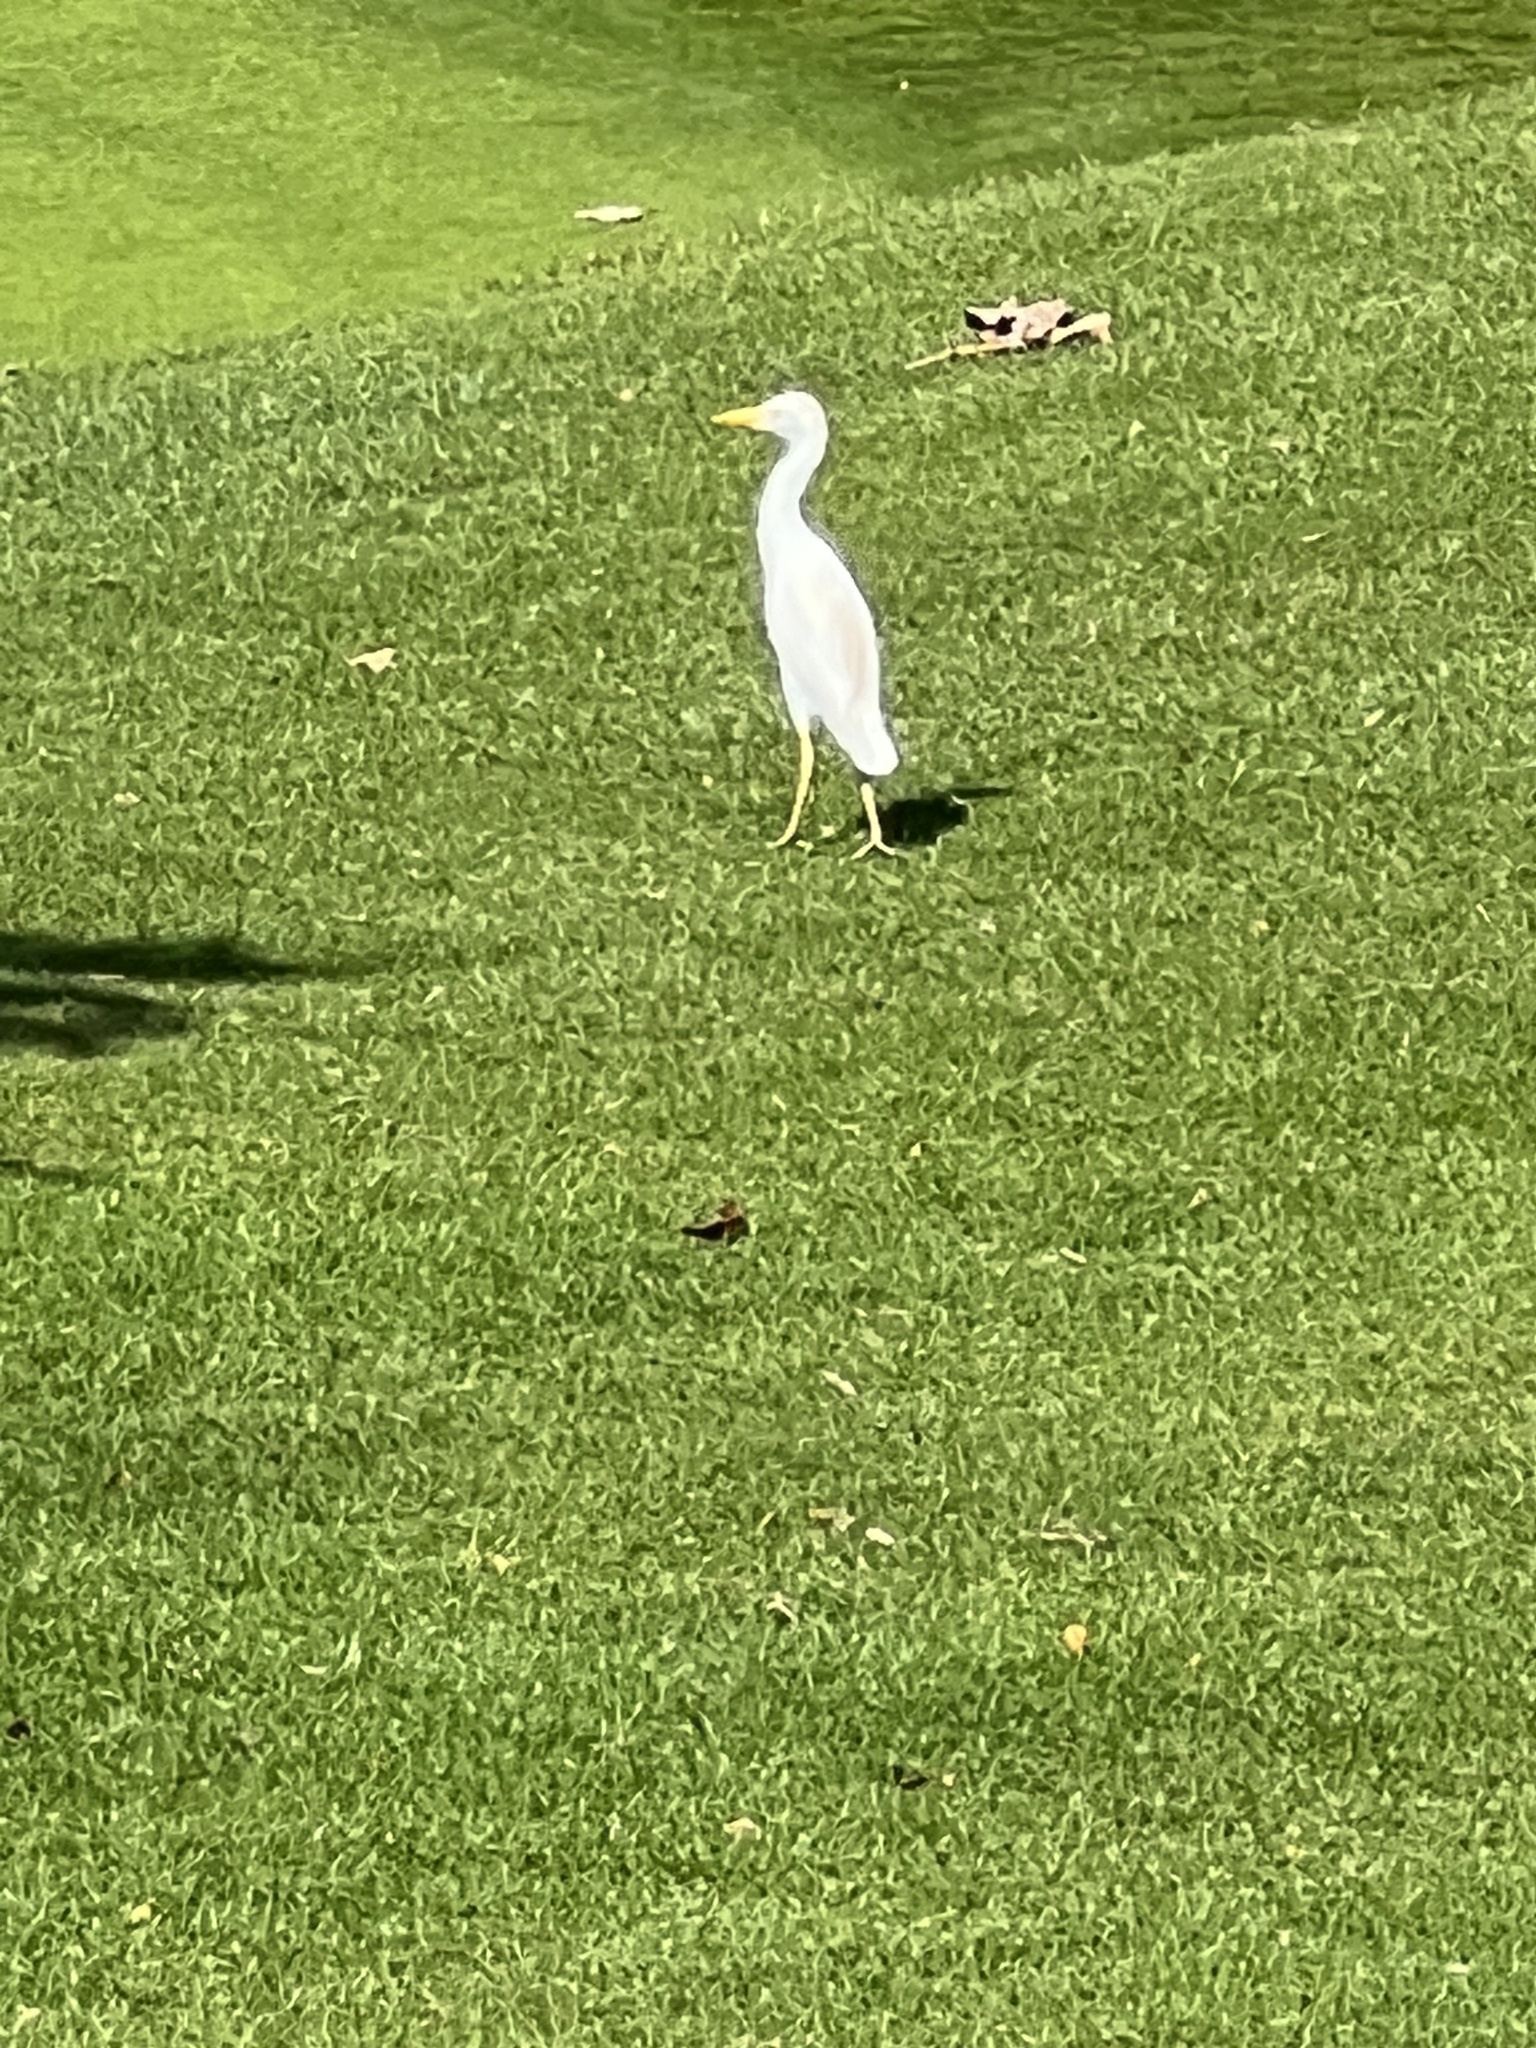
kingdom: Animalia
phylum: Chordata
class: Aves
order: Pelecaniformes
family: Ardeidae
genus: Bubulcus
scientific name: Bubulcus ibis
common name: Cattle egret
